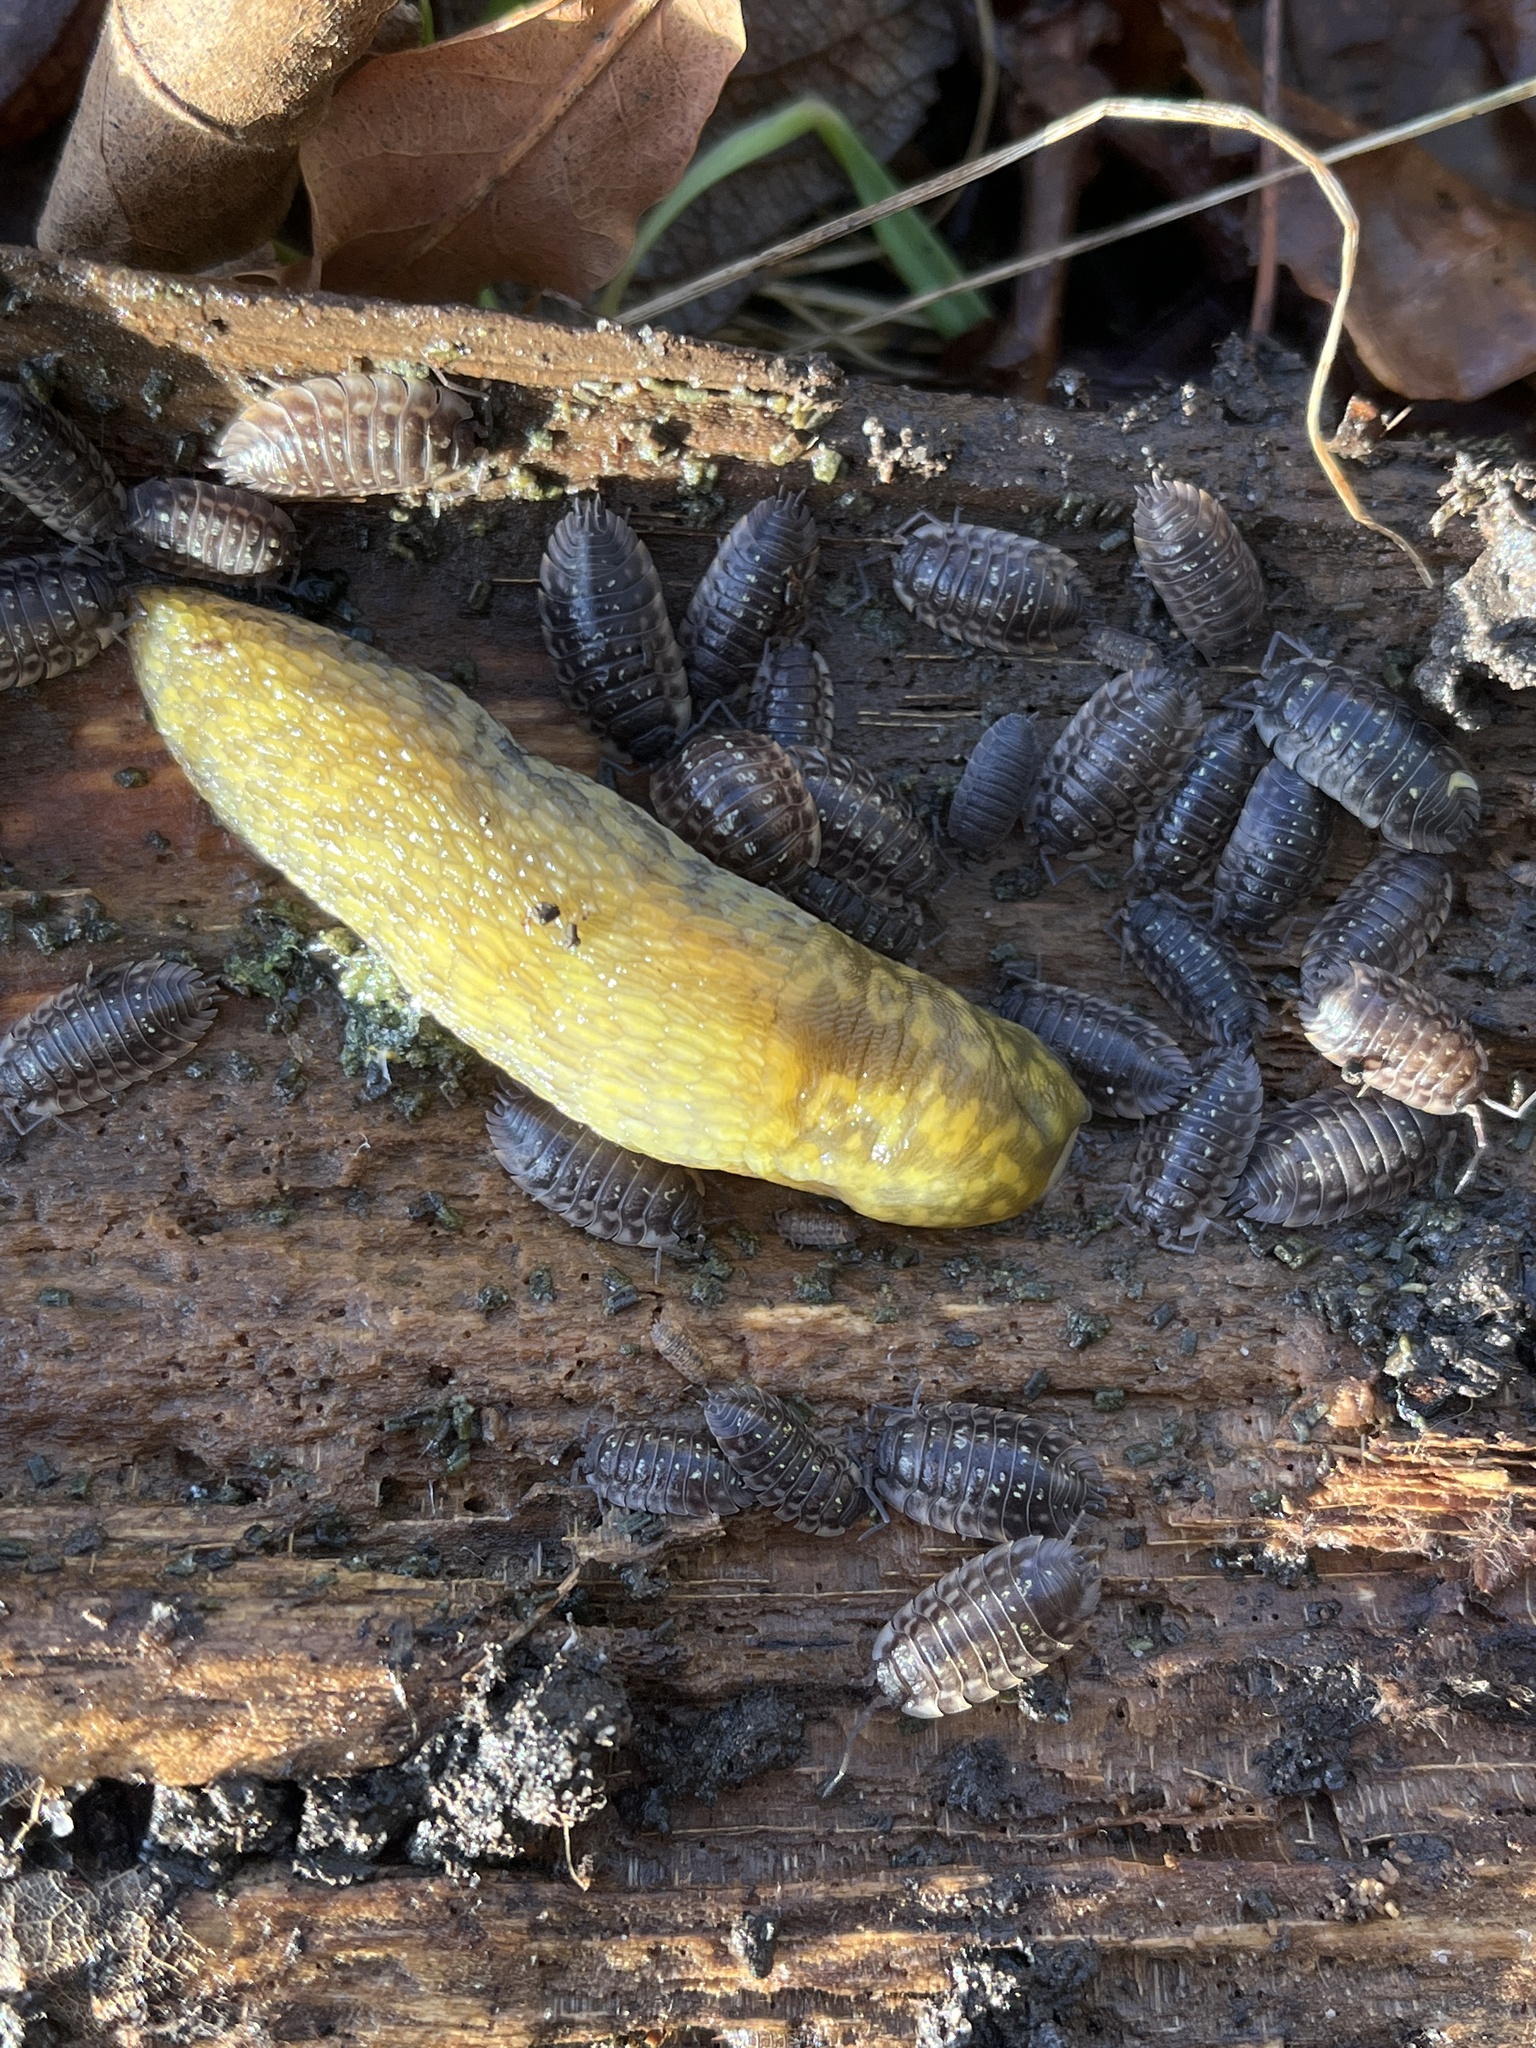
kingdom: Animalia
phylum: Mollusca
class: Gastropoda
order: Stylommatophora
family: Limacidae
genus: Limacus
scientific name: Limacus maculatus
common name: Irish yellow slug
